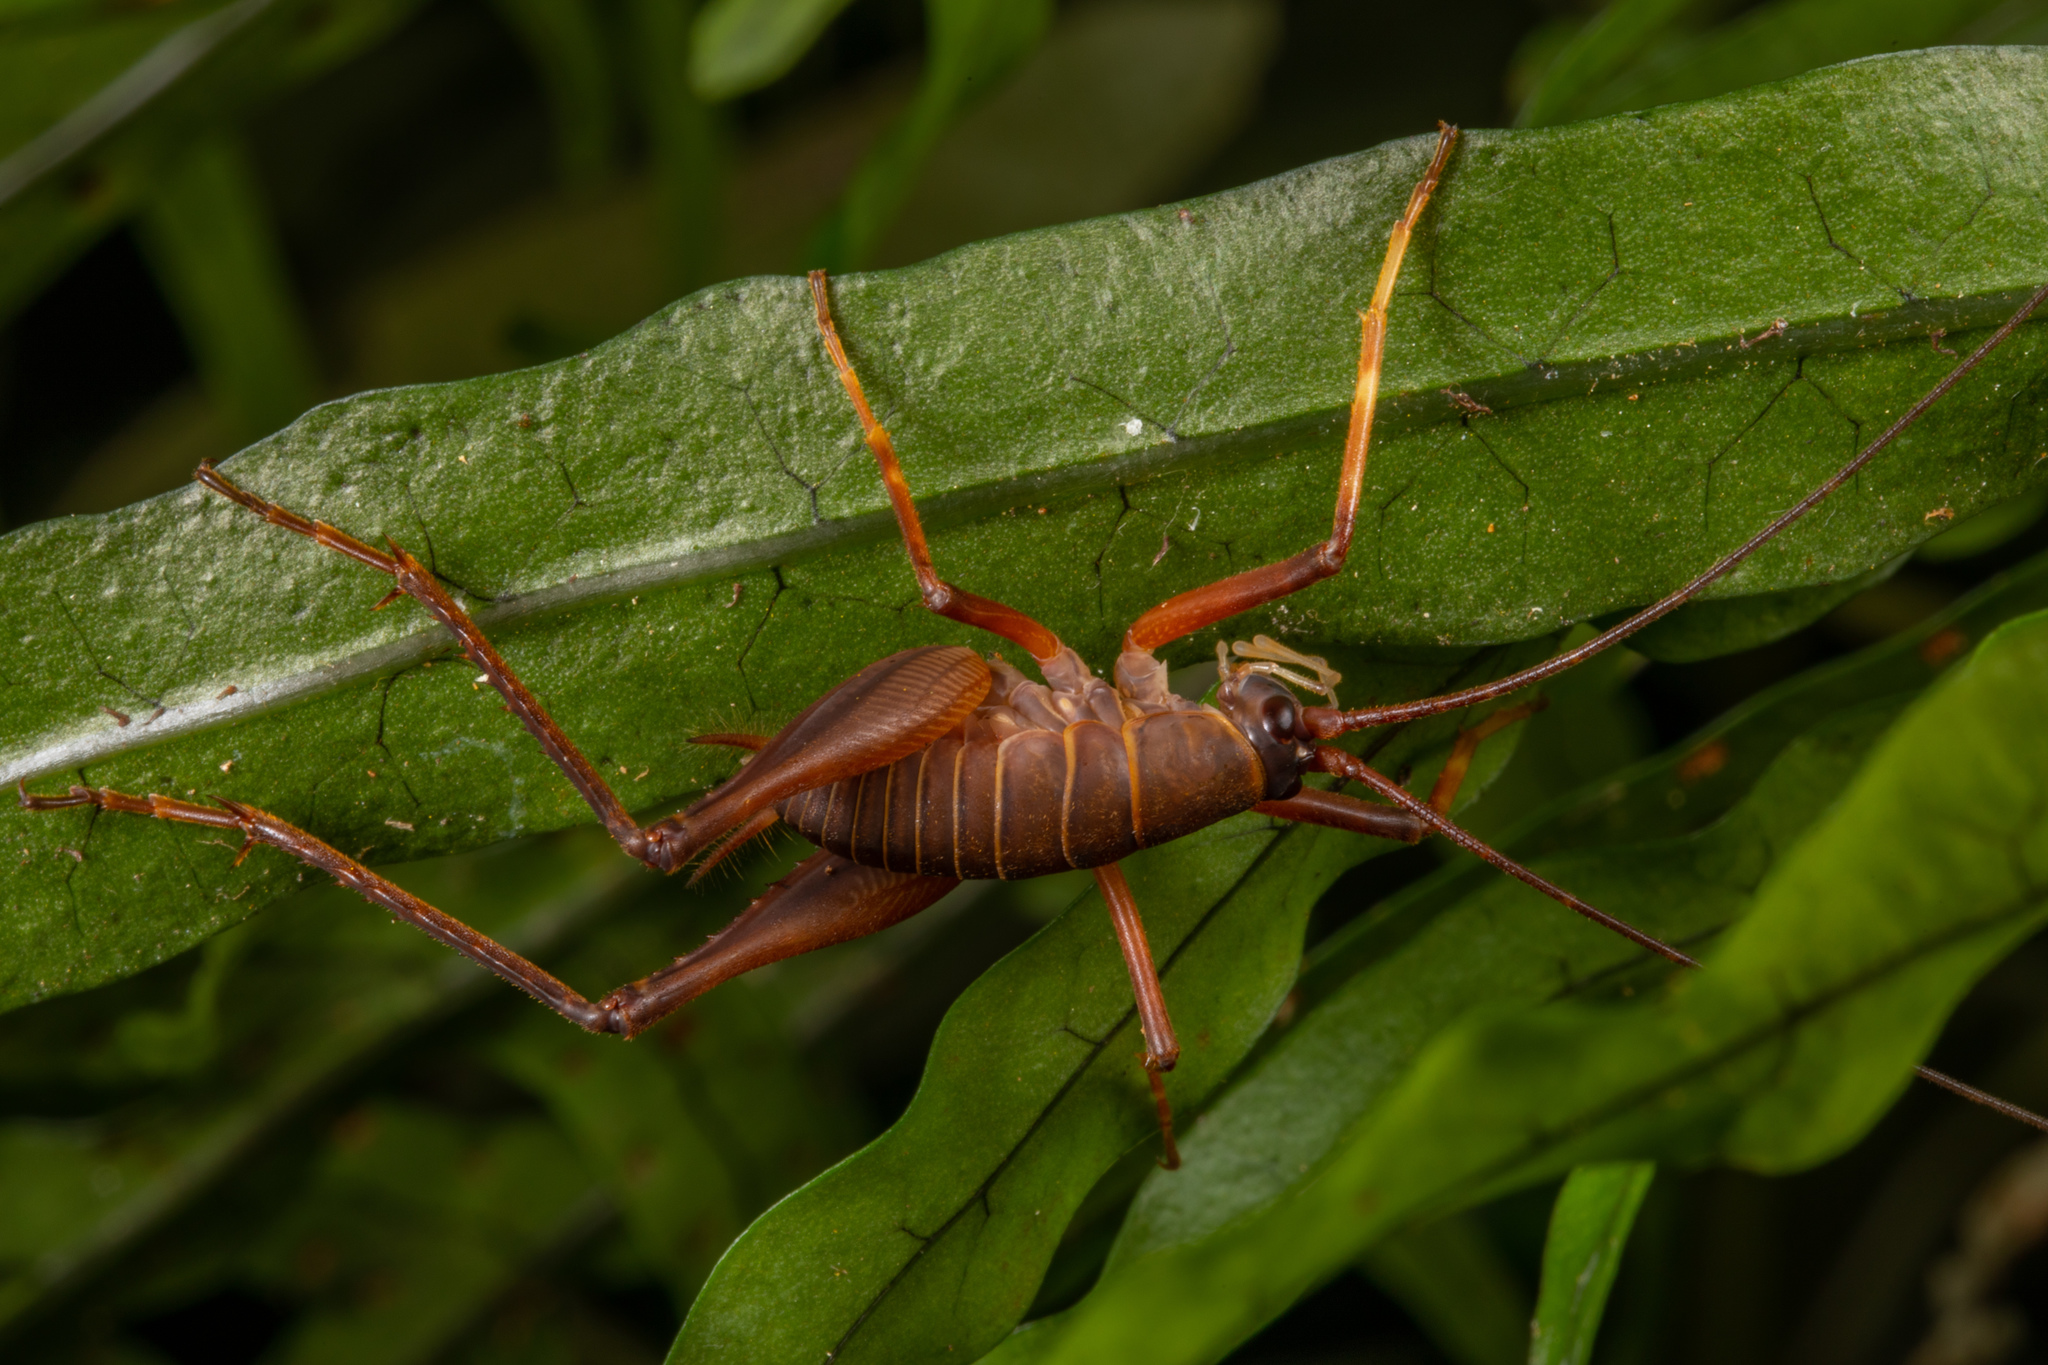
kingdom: Animalia
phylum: Arthropoda
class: Insecta
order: Orthoptera
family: Rhaphidophoridae
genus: Pachyrhamma
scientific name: Pachyrhamma longipes
